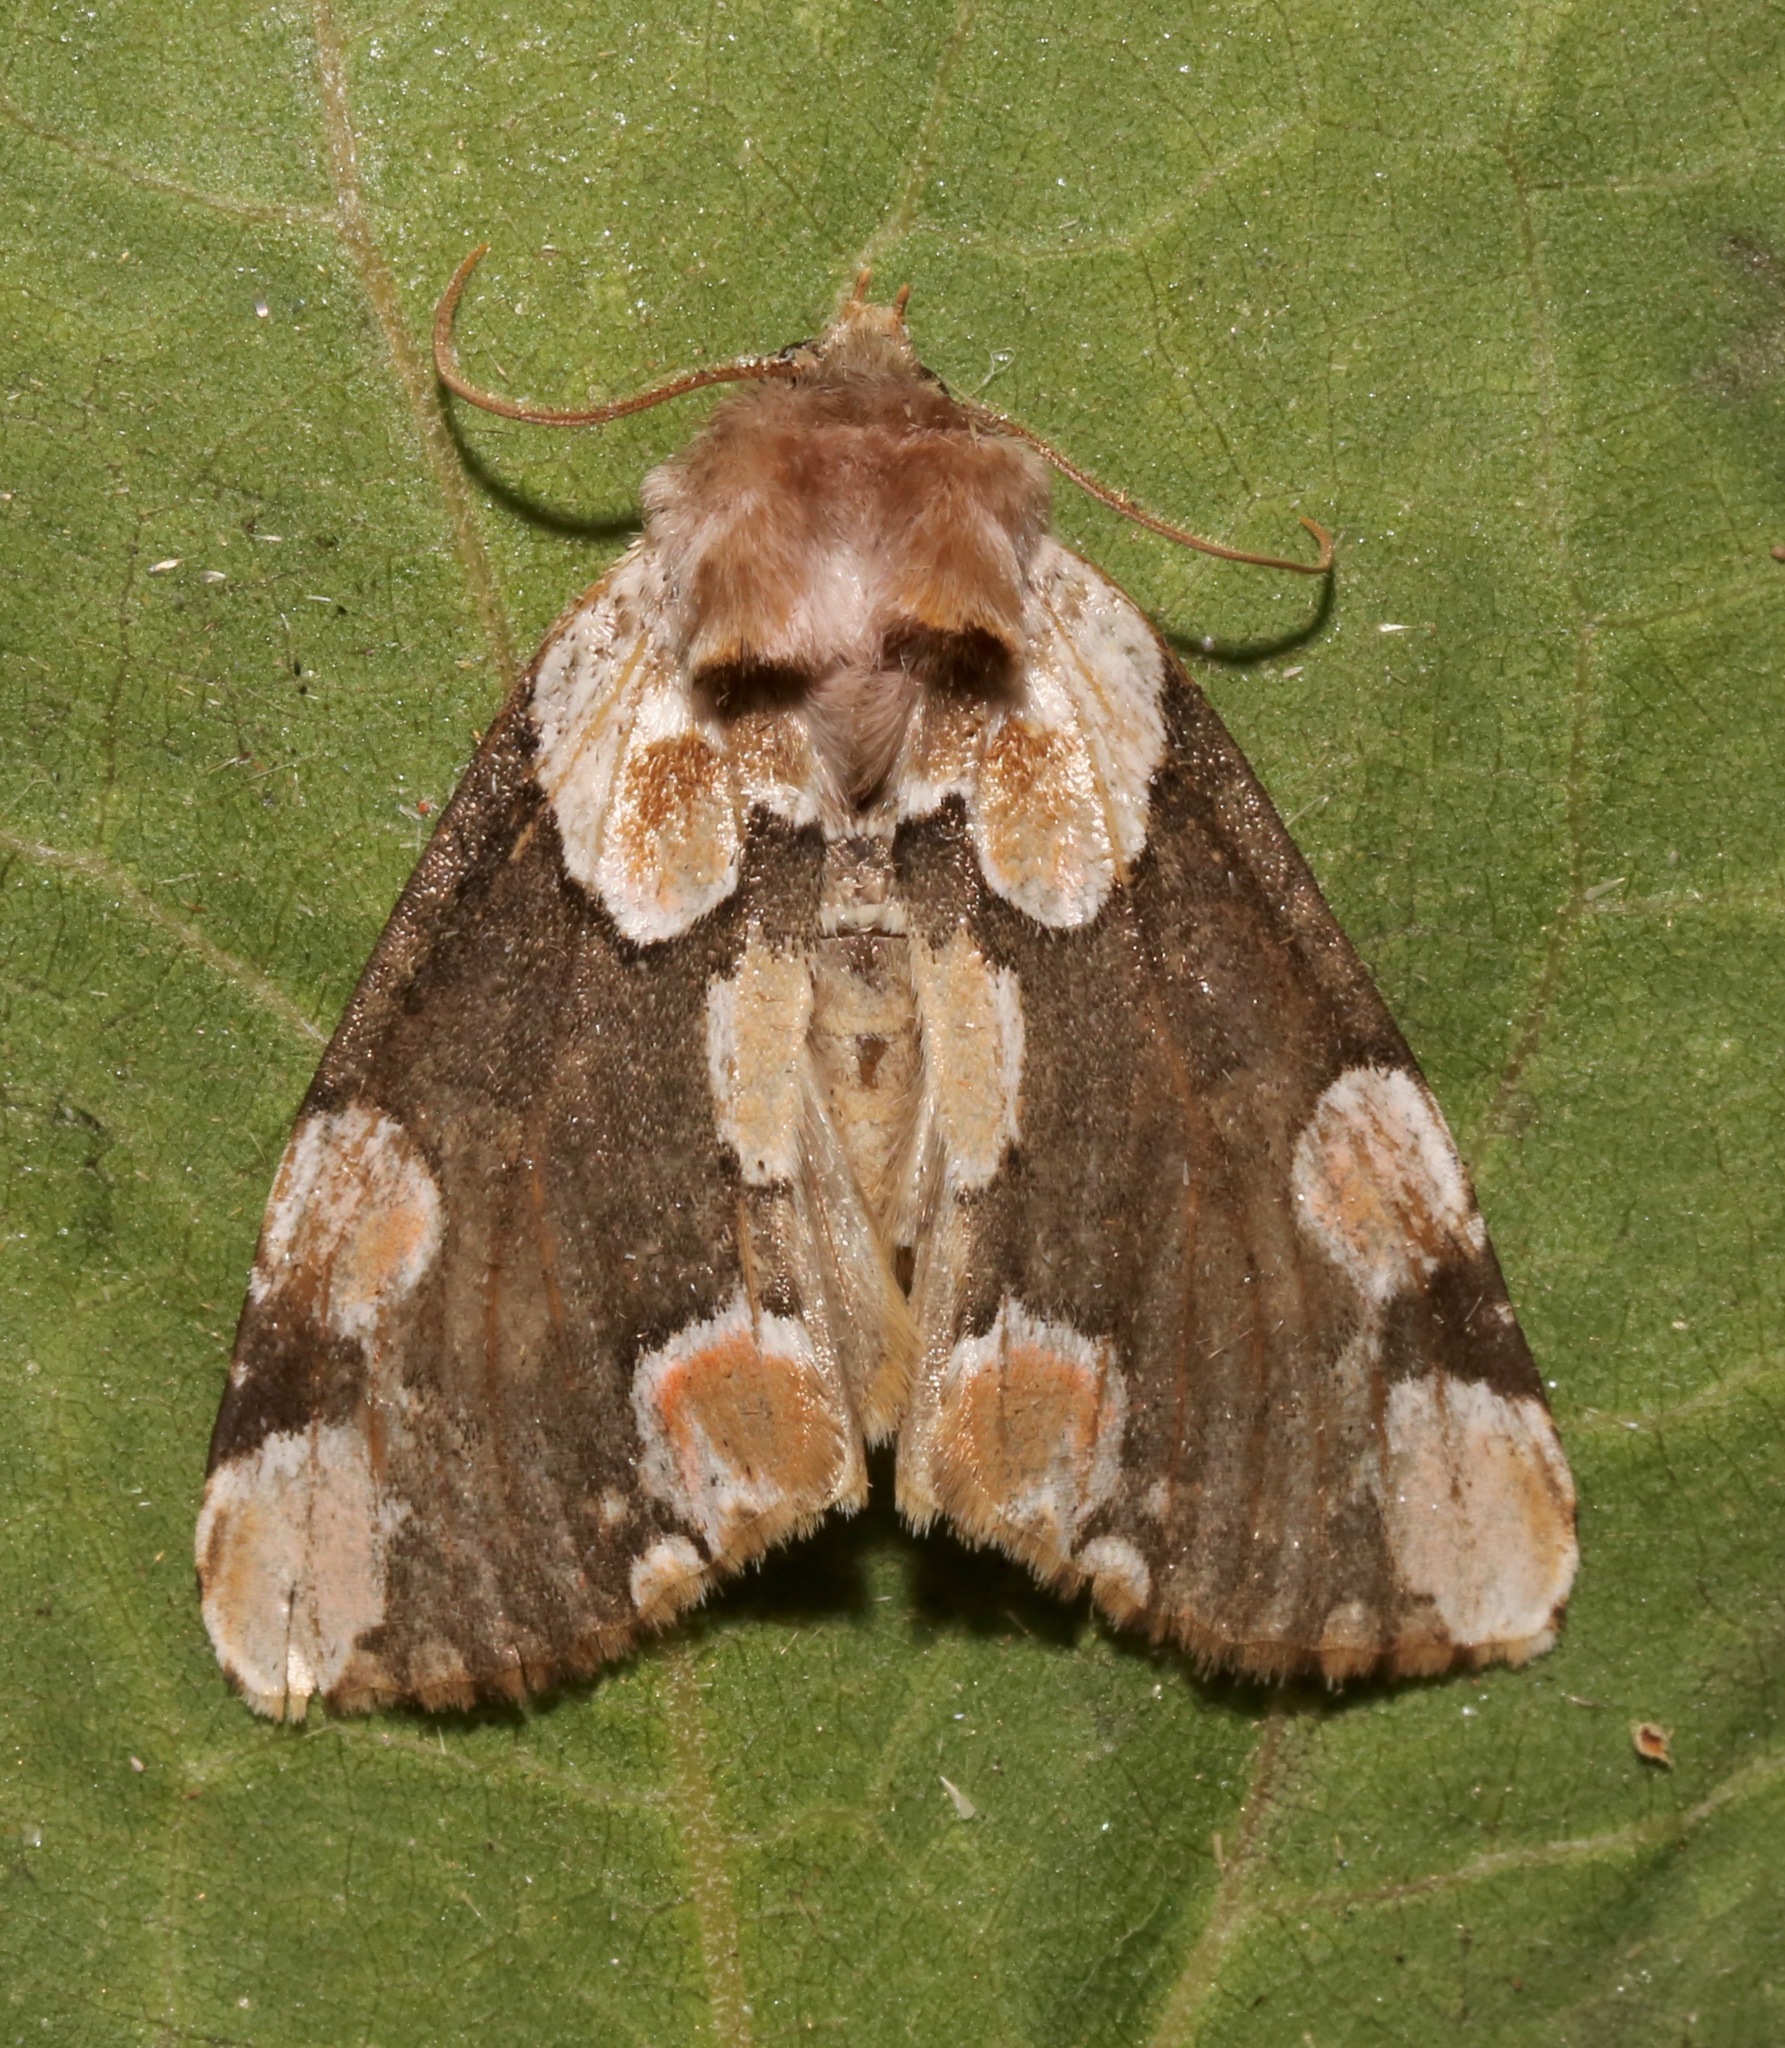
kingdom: Animalia
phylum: Arthropoda
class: Insecta
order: Lepidoptera
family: Drepanidae
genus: Thyatira
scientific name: Thyatira mexicana
